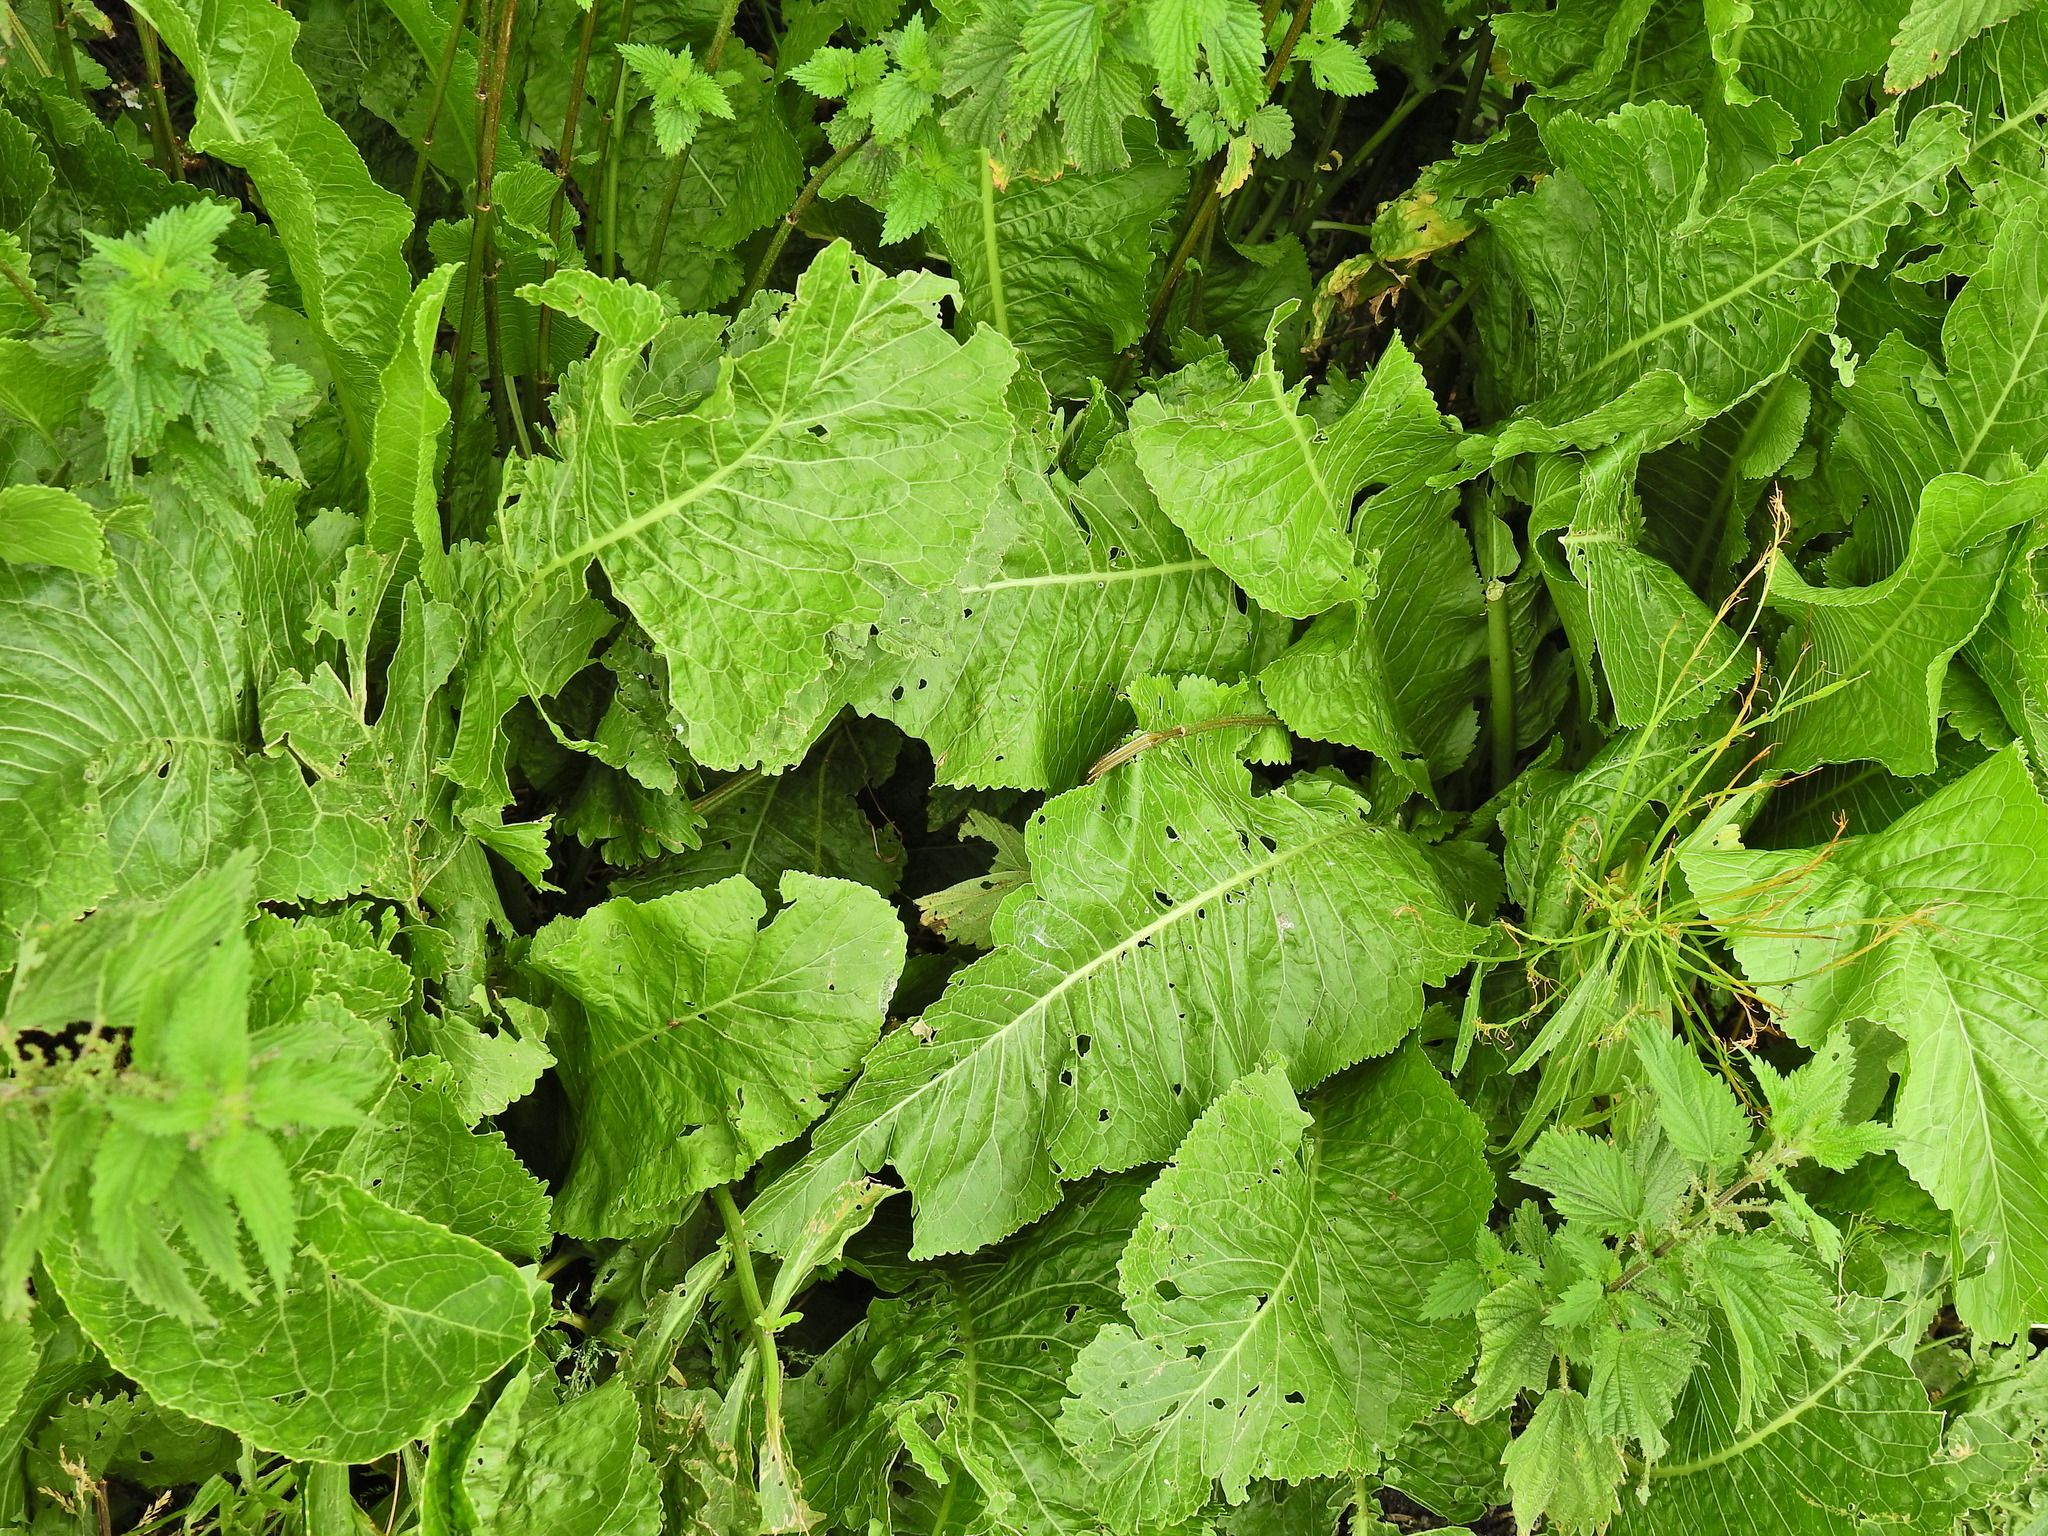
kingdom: Plantae
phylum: Tracheophyta
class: Magnoliopsida
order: Brassicales
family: Brassicaceae
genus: Armoracia
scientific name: Armoracia rusticana
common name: Horseradish
